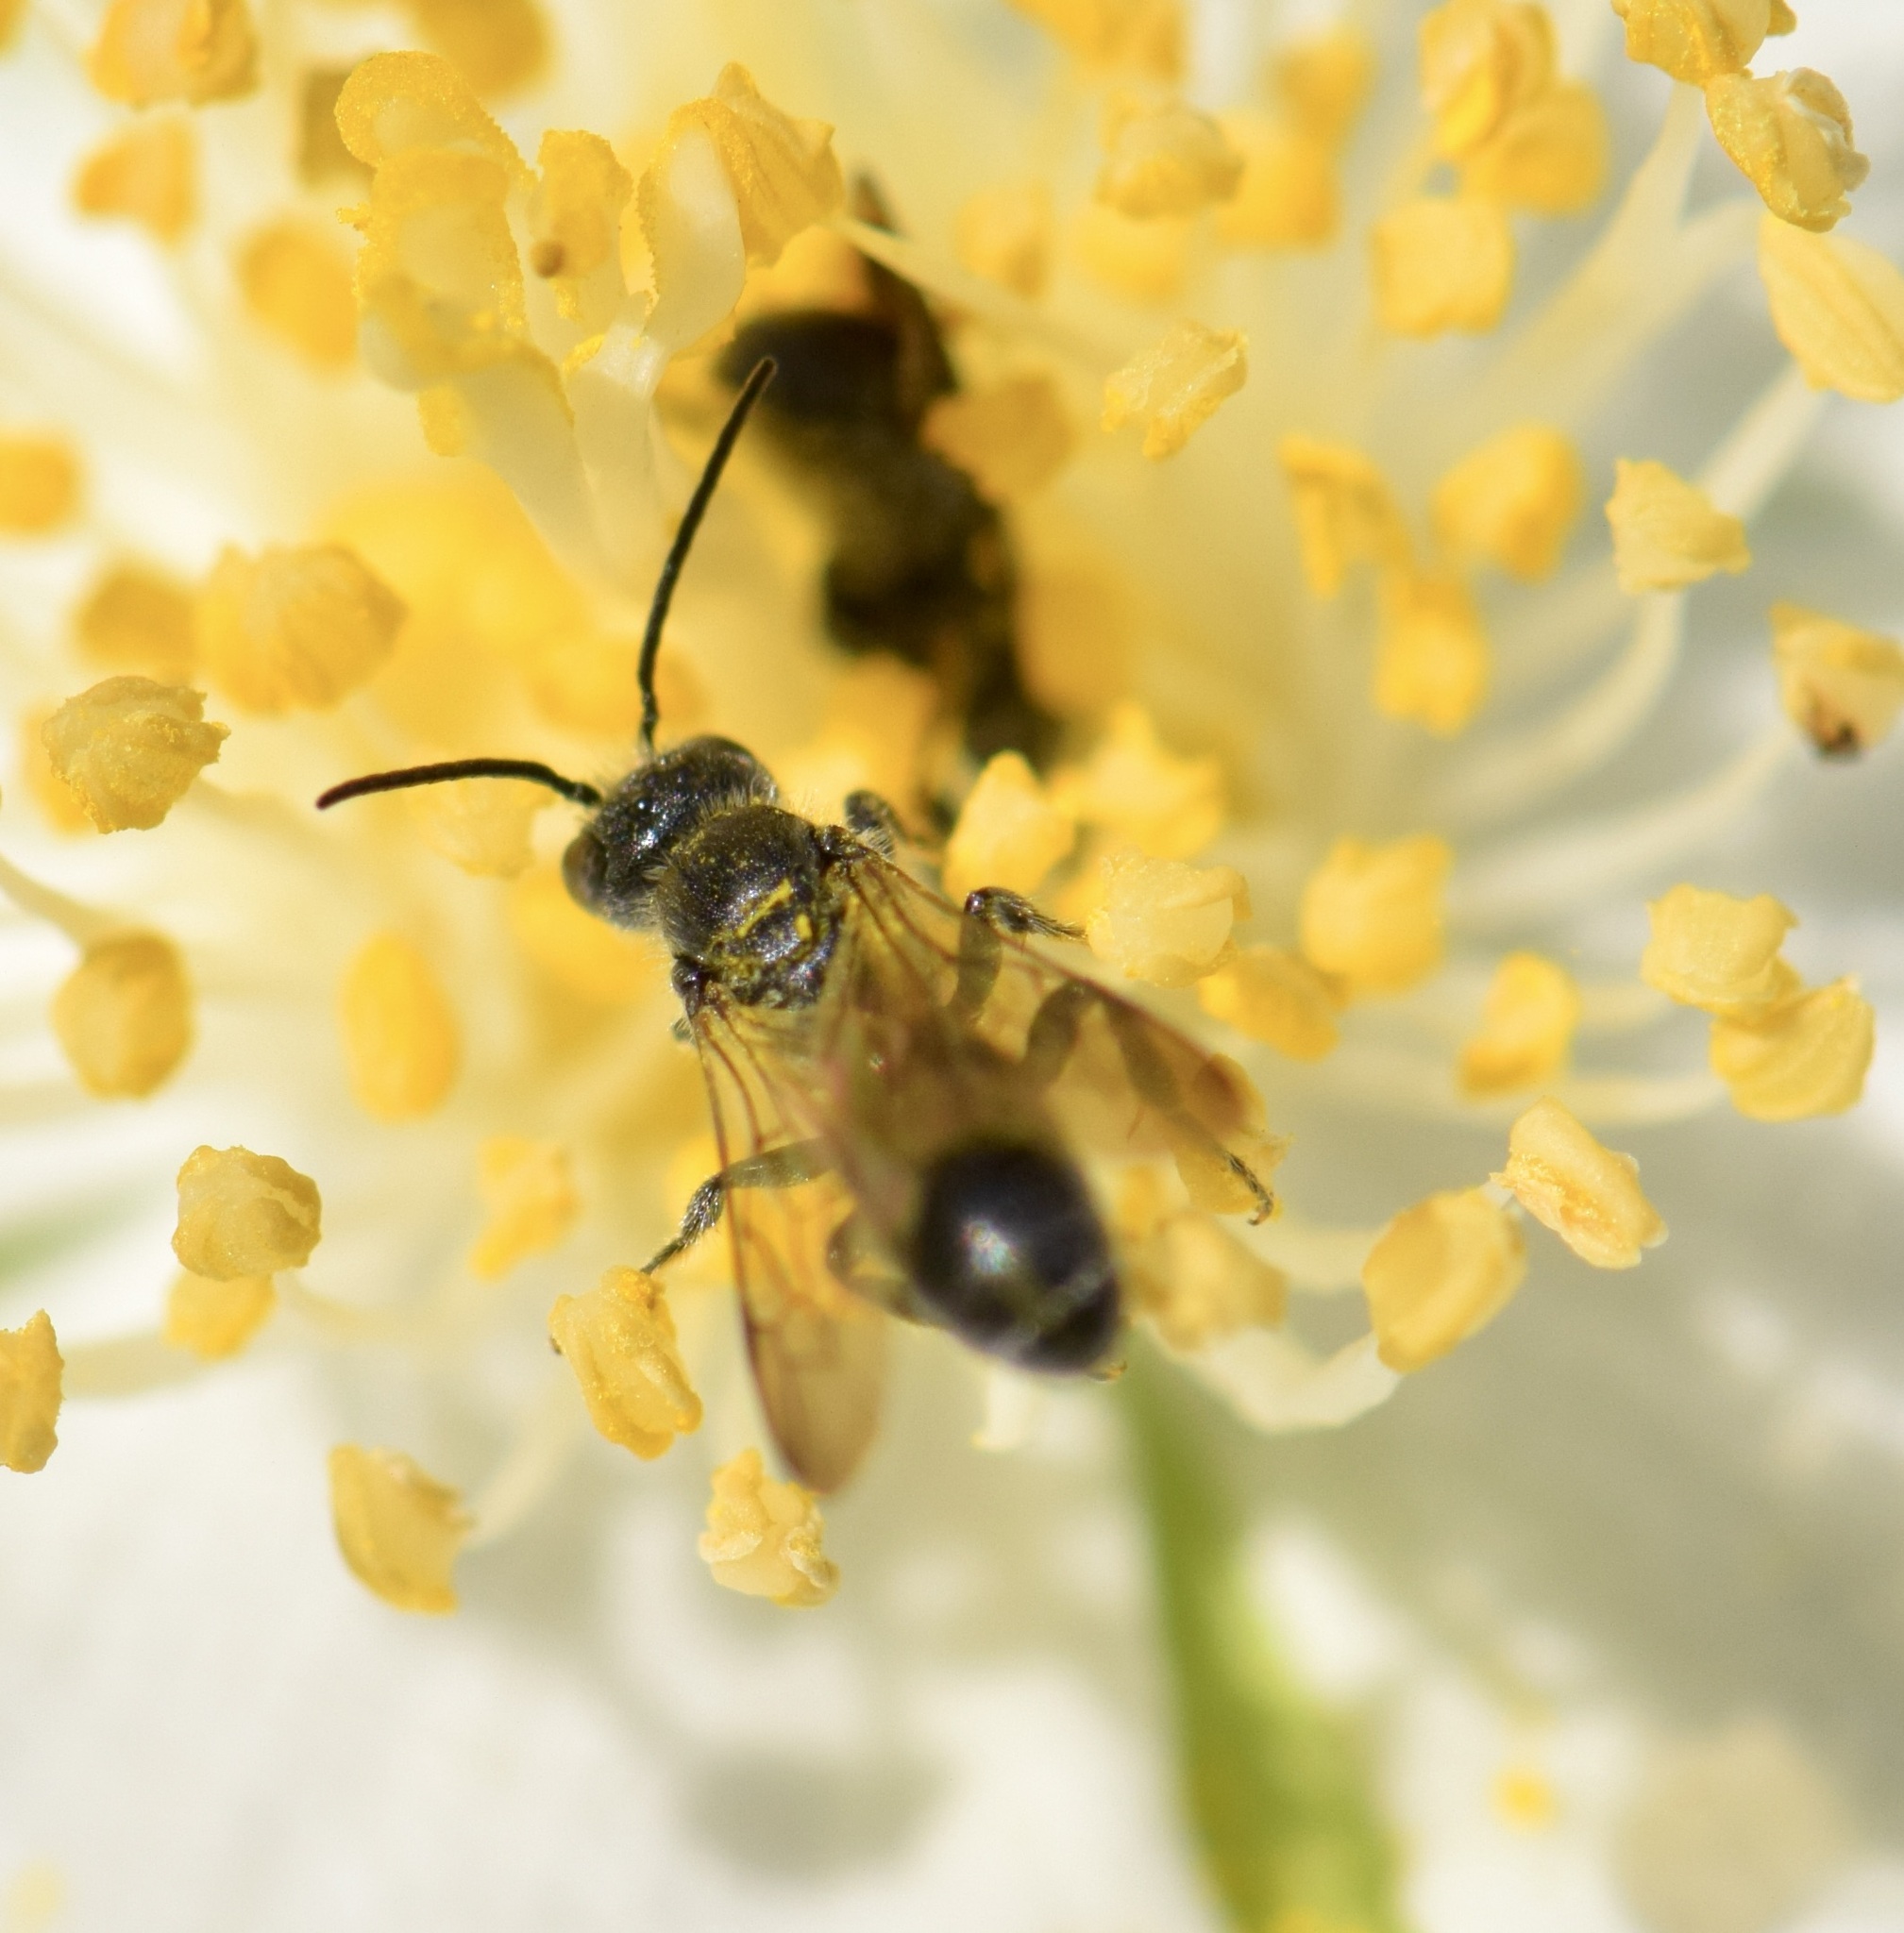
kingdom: Animalia
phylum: Arthropoda
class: Insecta
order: Hymenoptera
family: Megachilidae
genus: Chelostoma
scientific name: Chelostoma philadelphi
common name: Mock-orange scissor bee
